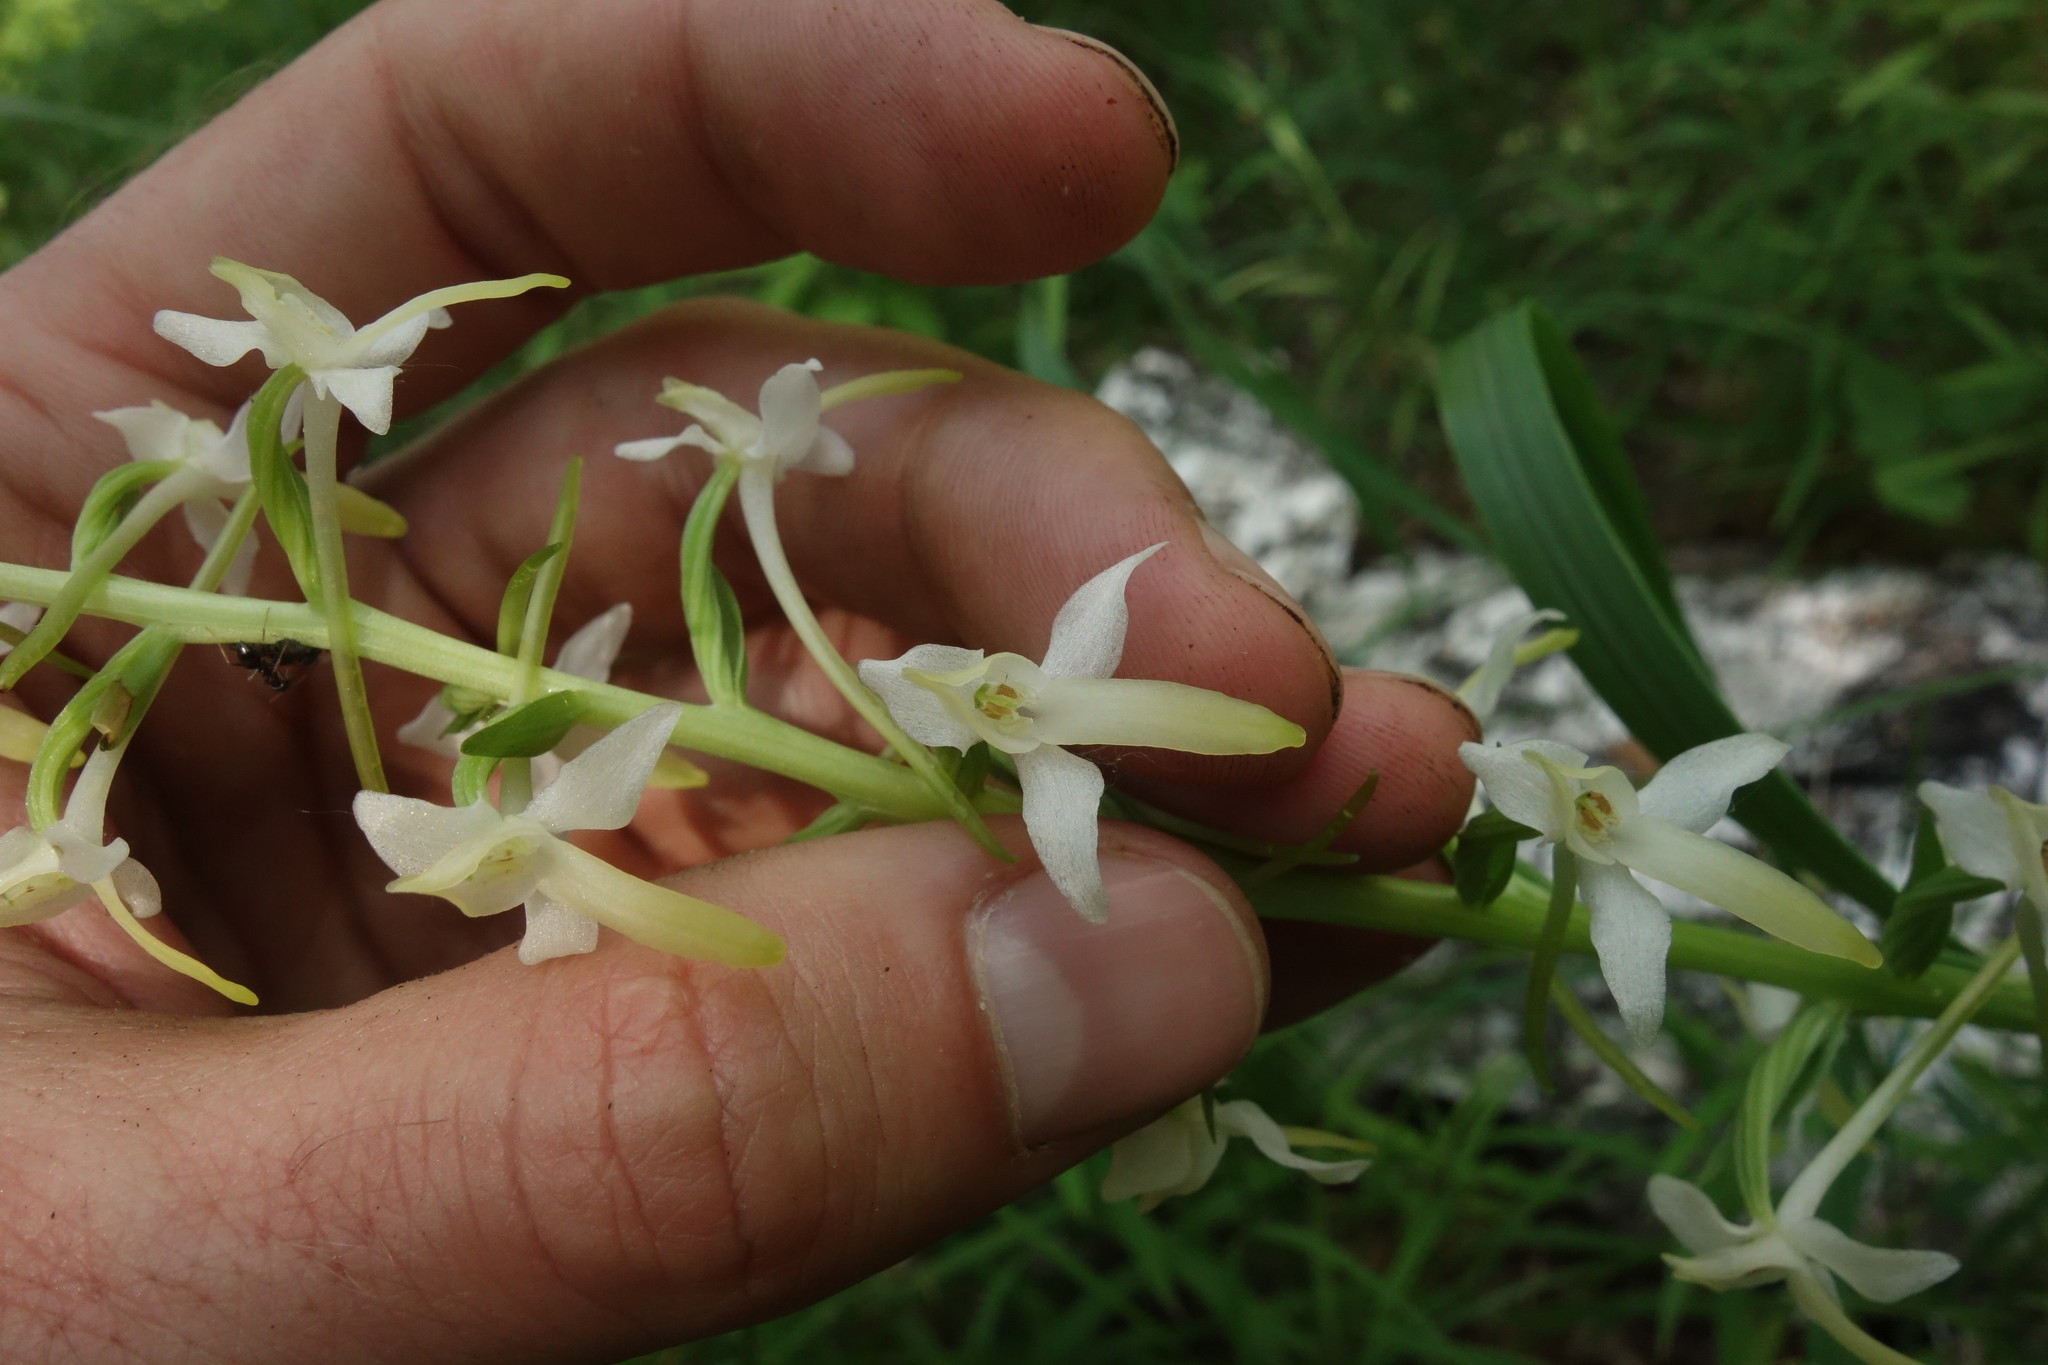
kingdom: Plantae
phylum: Tracheophyta
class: Liliopsida
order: Asparagales
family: Orchidaceae
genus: Platanthera
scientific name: Platanthera bifolia
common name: Lesser butterfly-orchid
